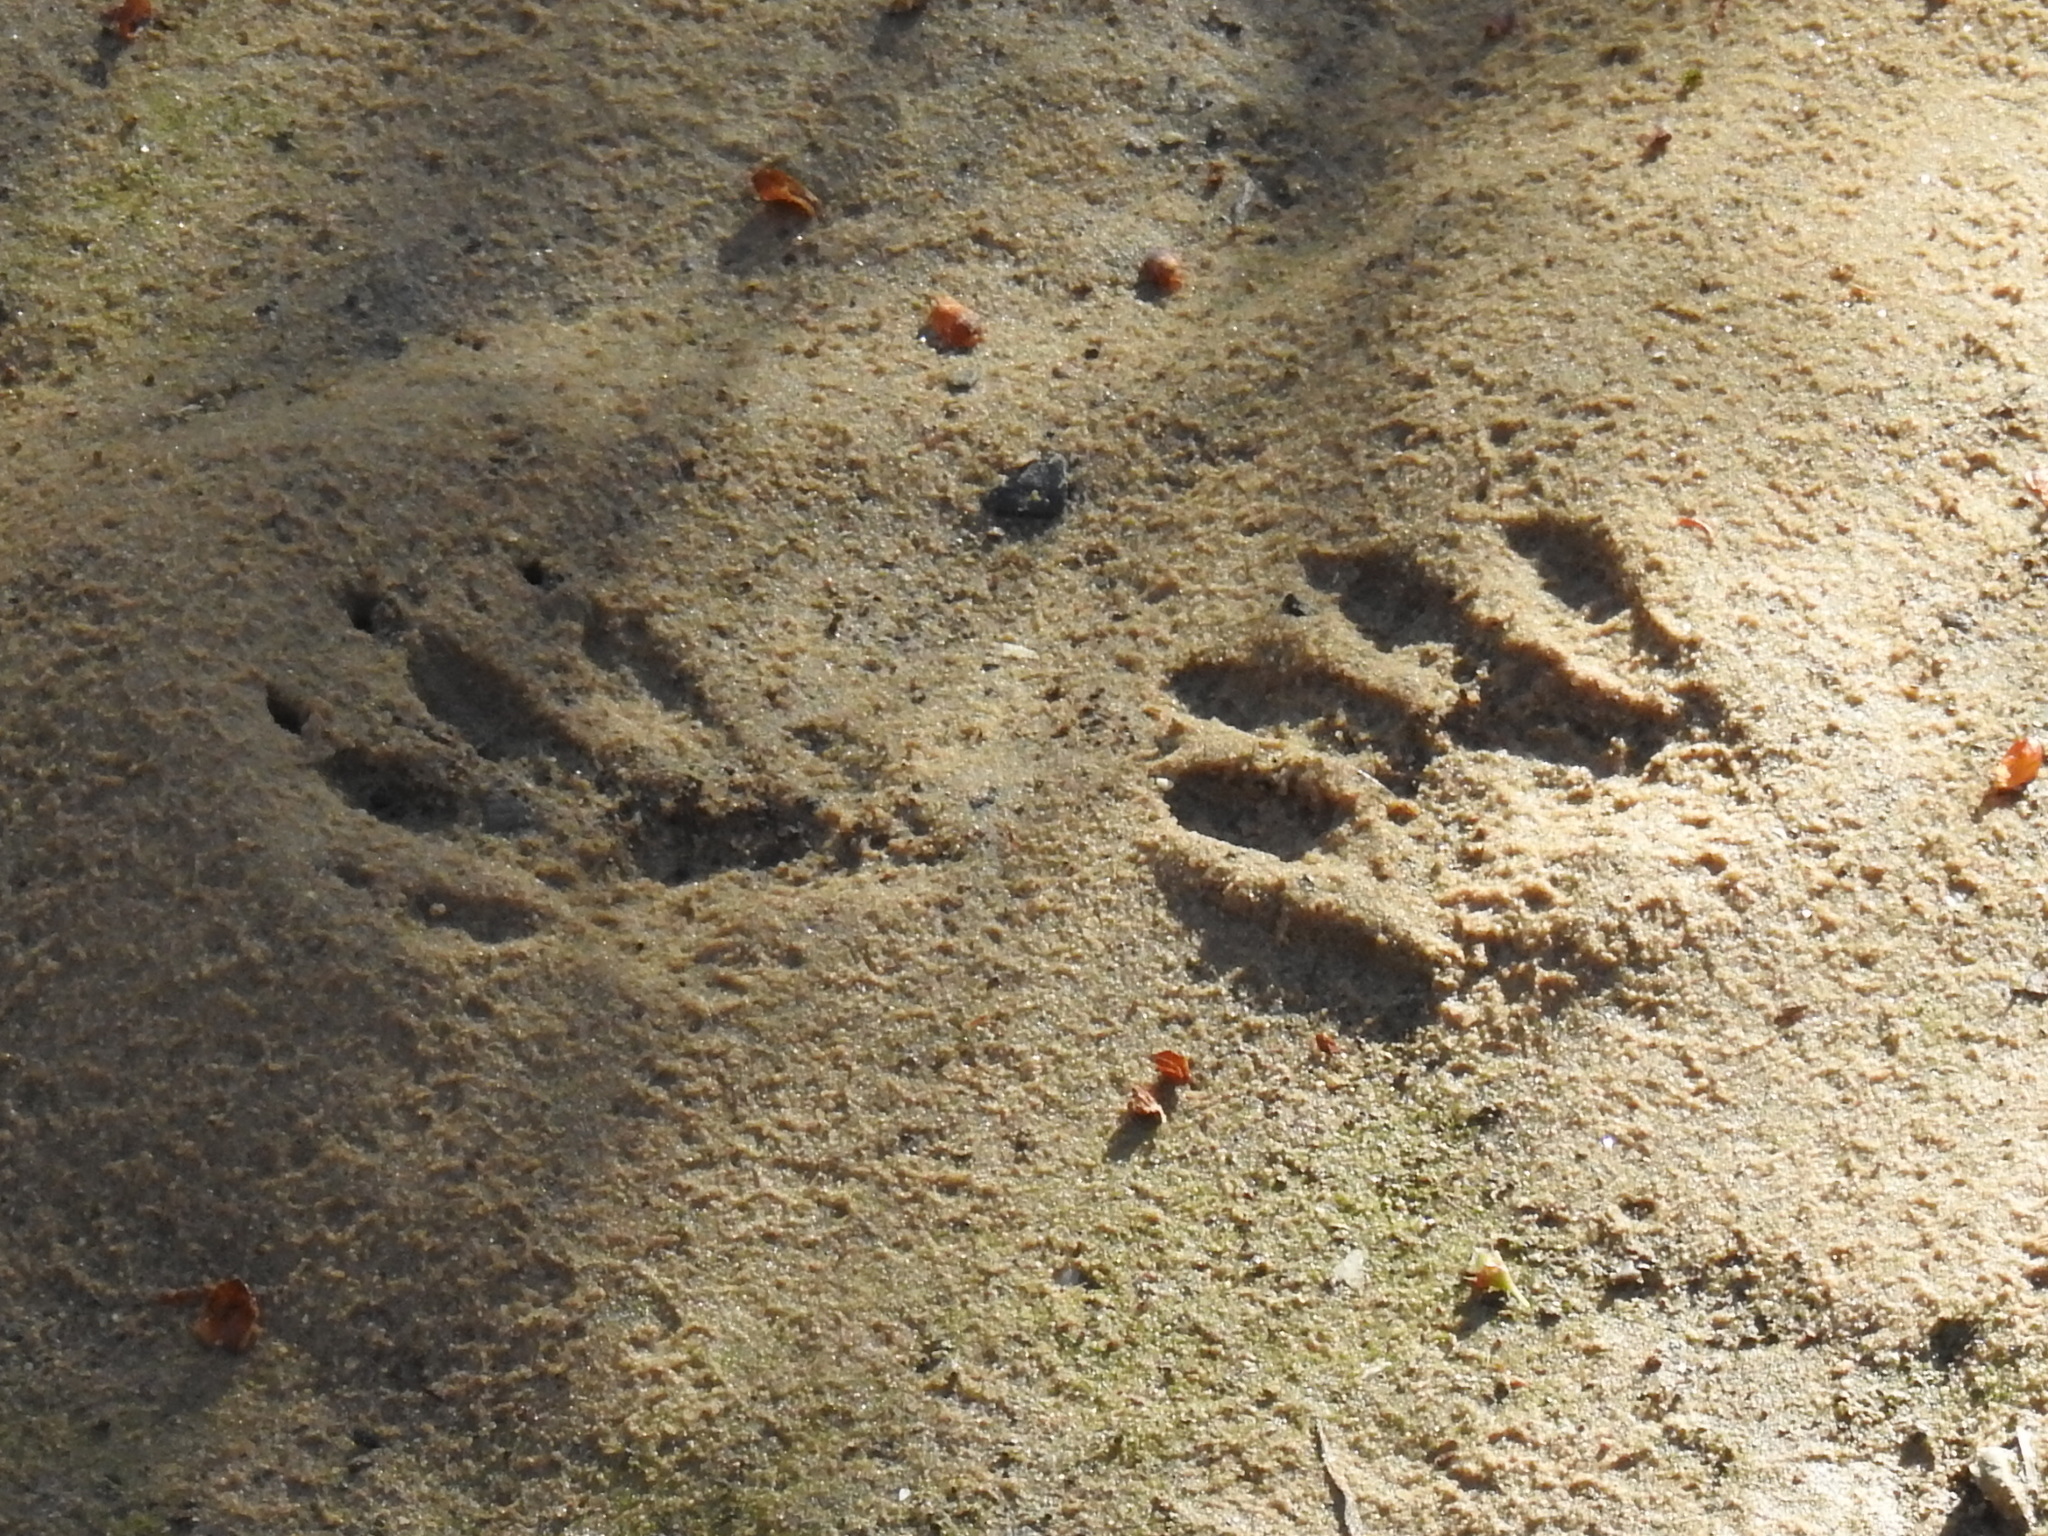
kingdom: Animalia
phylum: Chordata
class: Mammalia
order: Carnivora
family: Procyonidae
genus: Procyon
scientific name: Procyon lotor
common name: Raccoon
